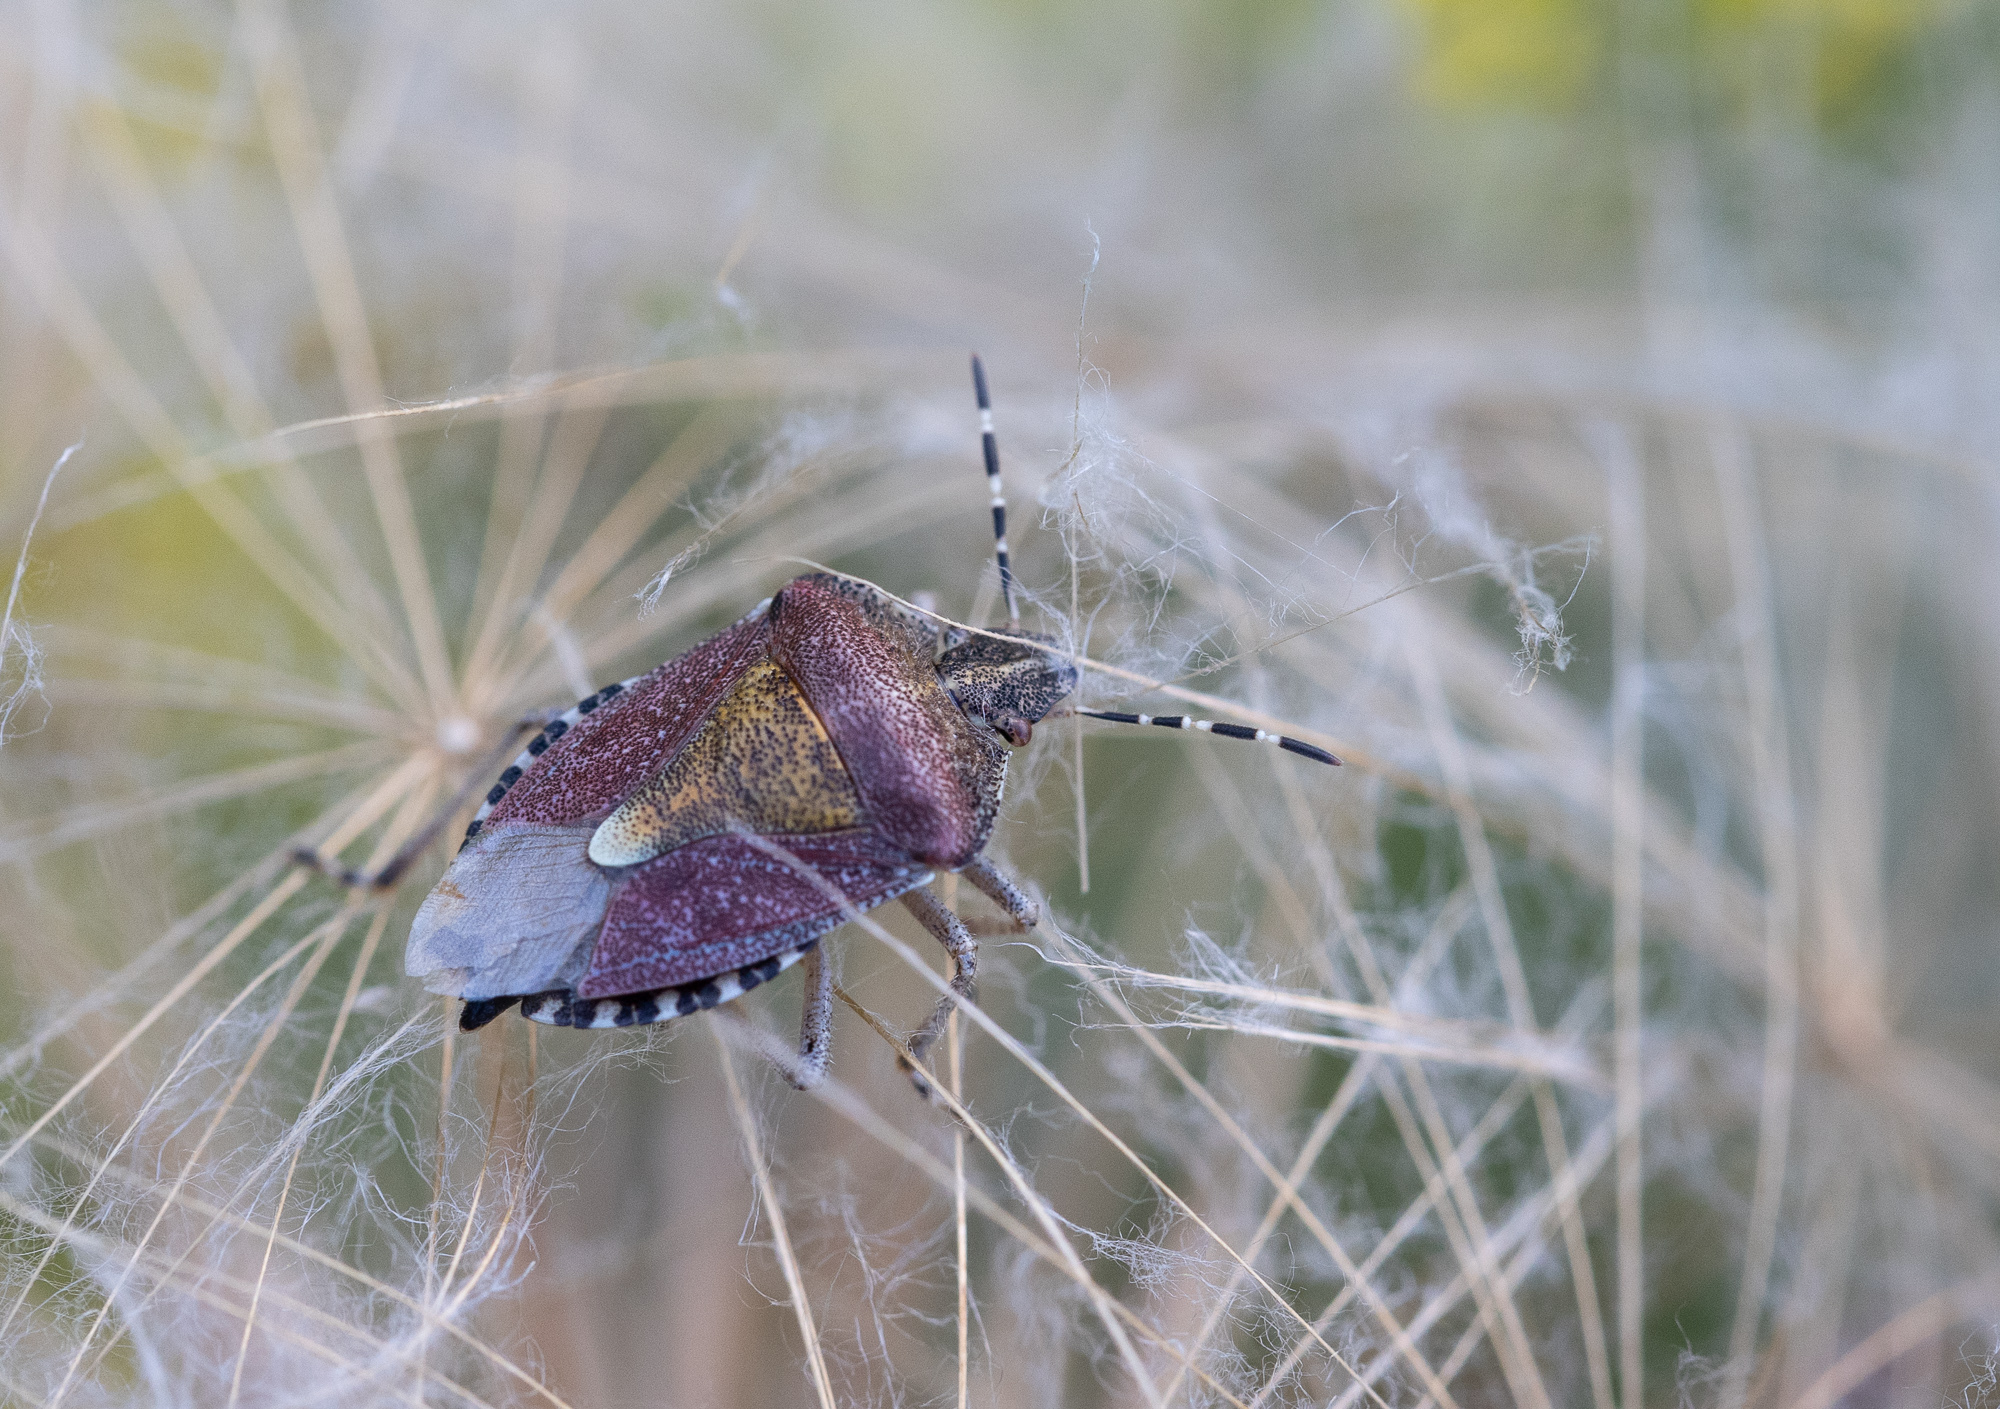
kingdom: Animalia
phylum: Arthropoda
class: Insecta
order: Hemiptera
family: Pentatomidae
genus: Dolycoris
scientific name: Dolycoris baccarum
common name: Sloe bug
